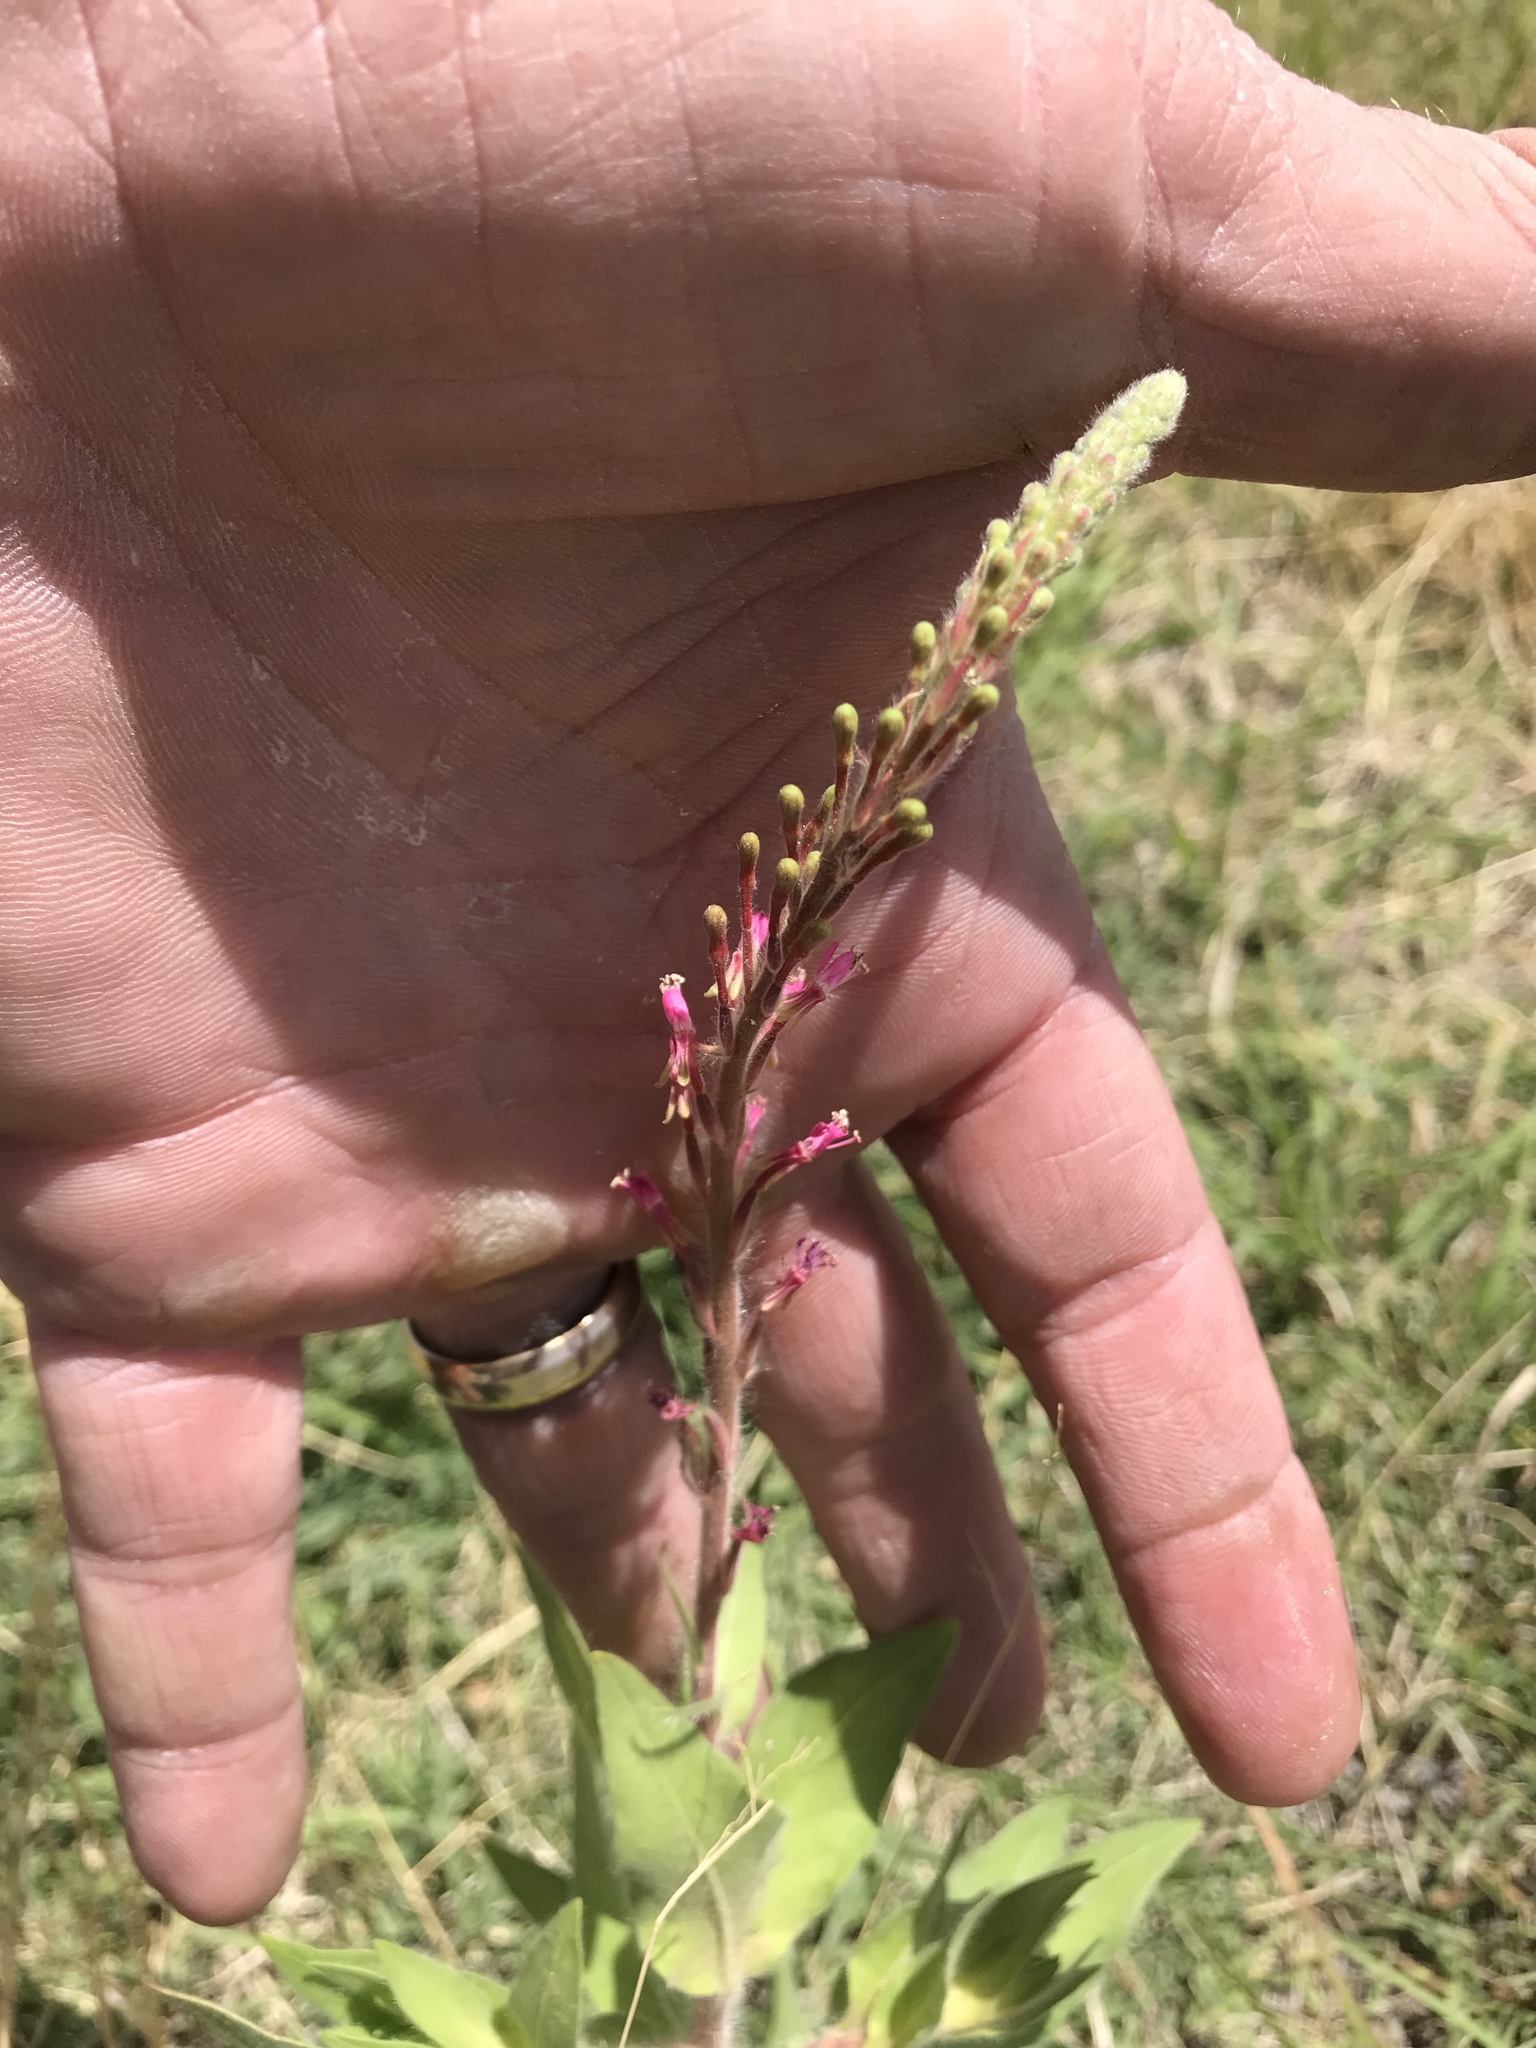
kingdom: Plantae
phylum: Tracheophyta
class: Magnoliopsida
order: Myrtales
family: Onagraceae
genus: Oenothera
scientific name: Oenothera curtiflora
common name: Velvetweed
